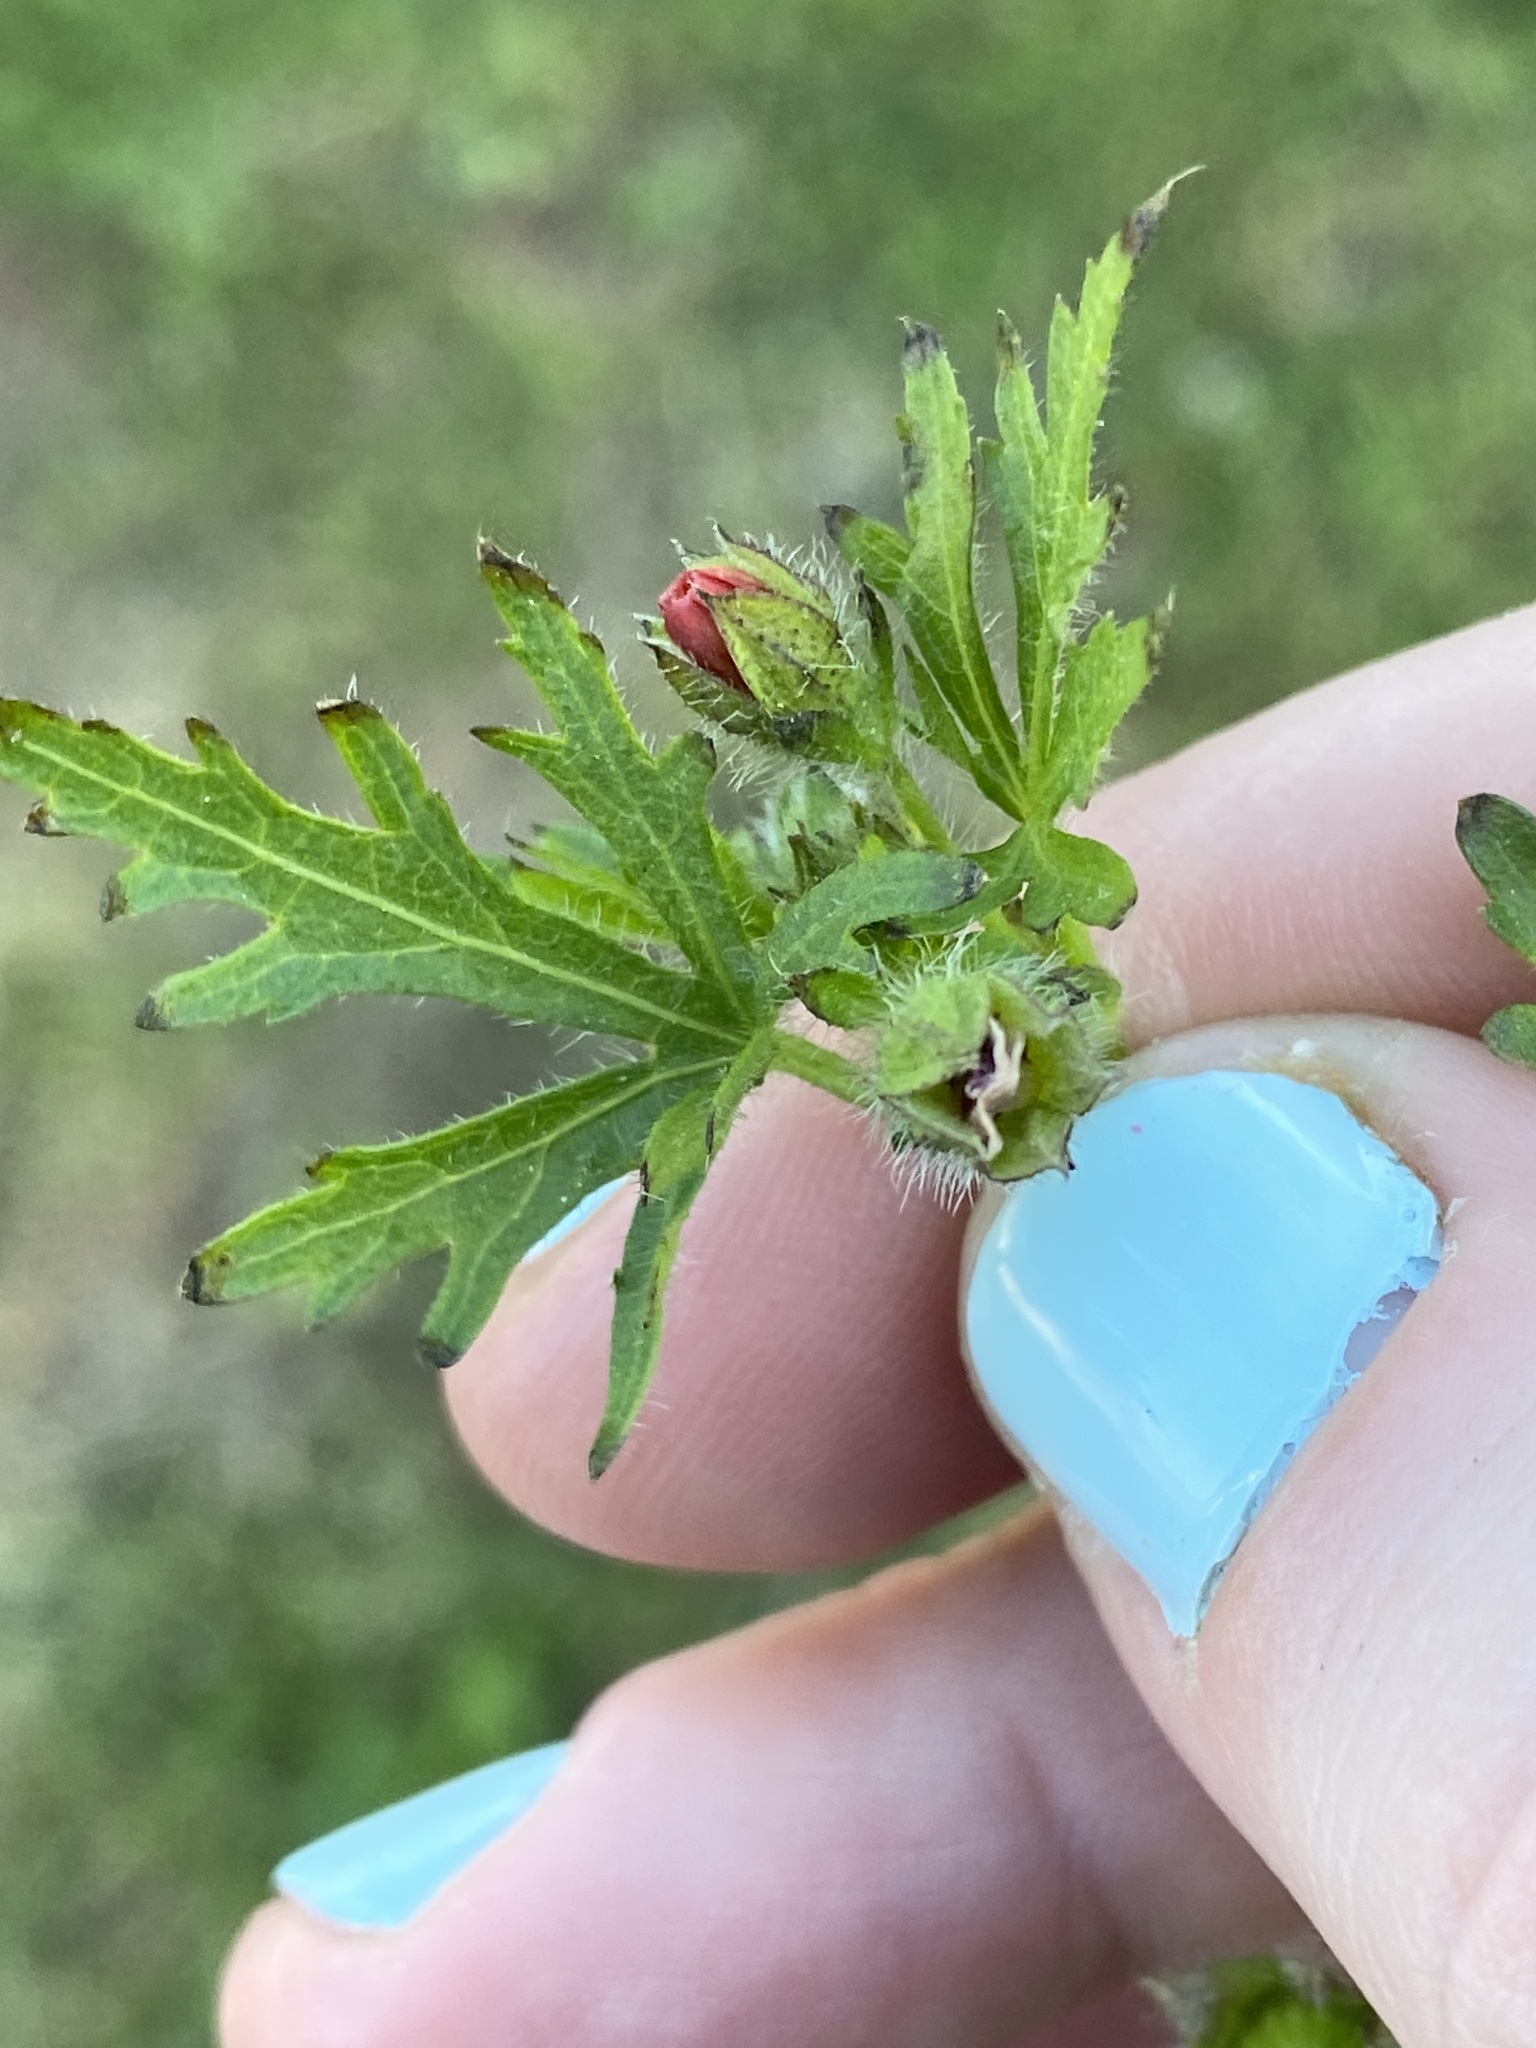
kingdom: Plantae
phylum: Tracheophyta
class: Magnoliopsida
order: Malvales
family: Malvaceae
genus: Modiola
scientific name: Modiola caroliniana
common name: Carolina bristlemallow
